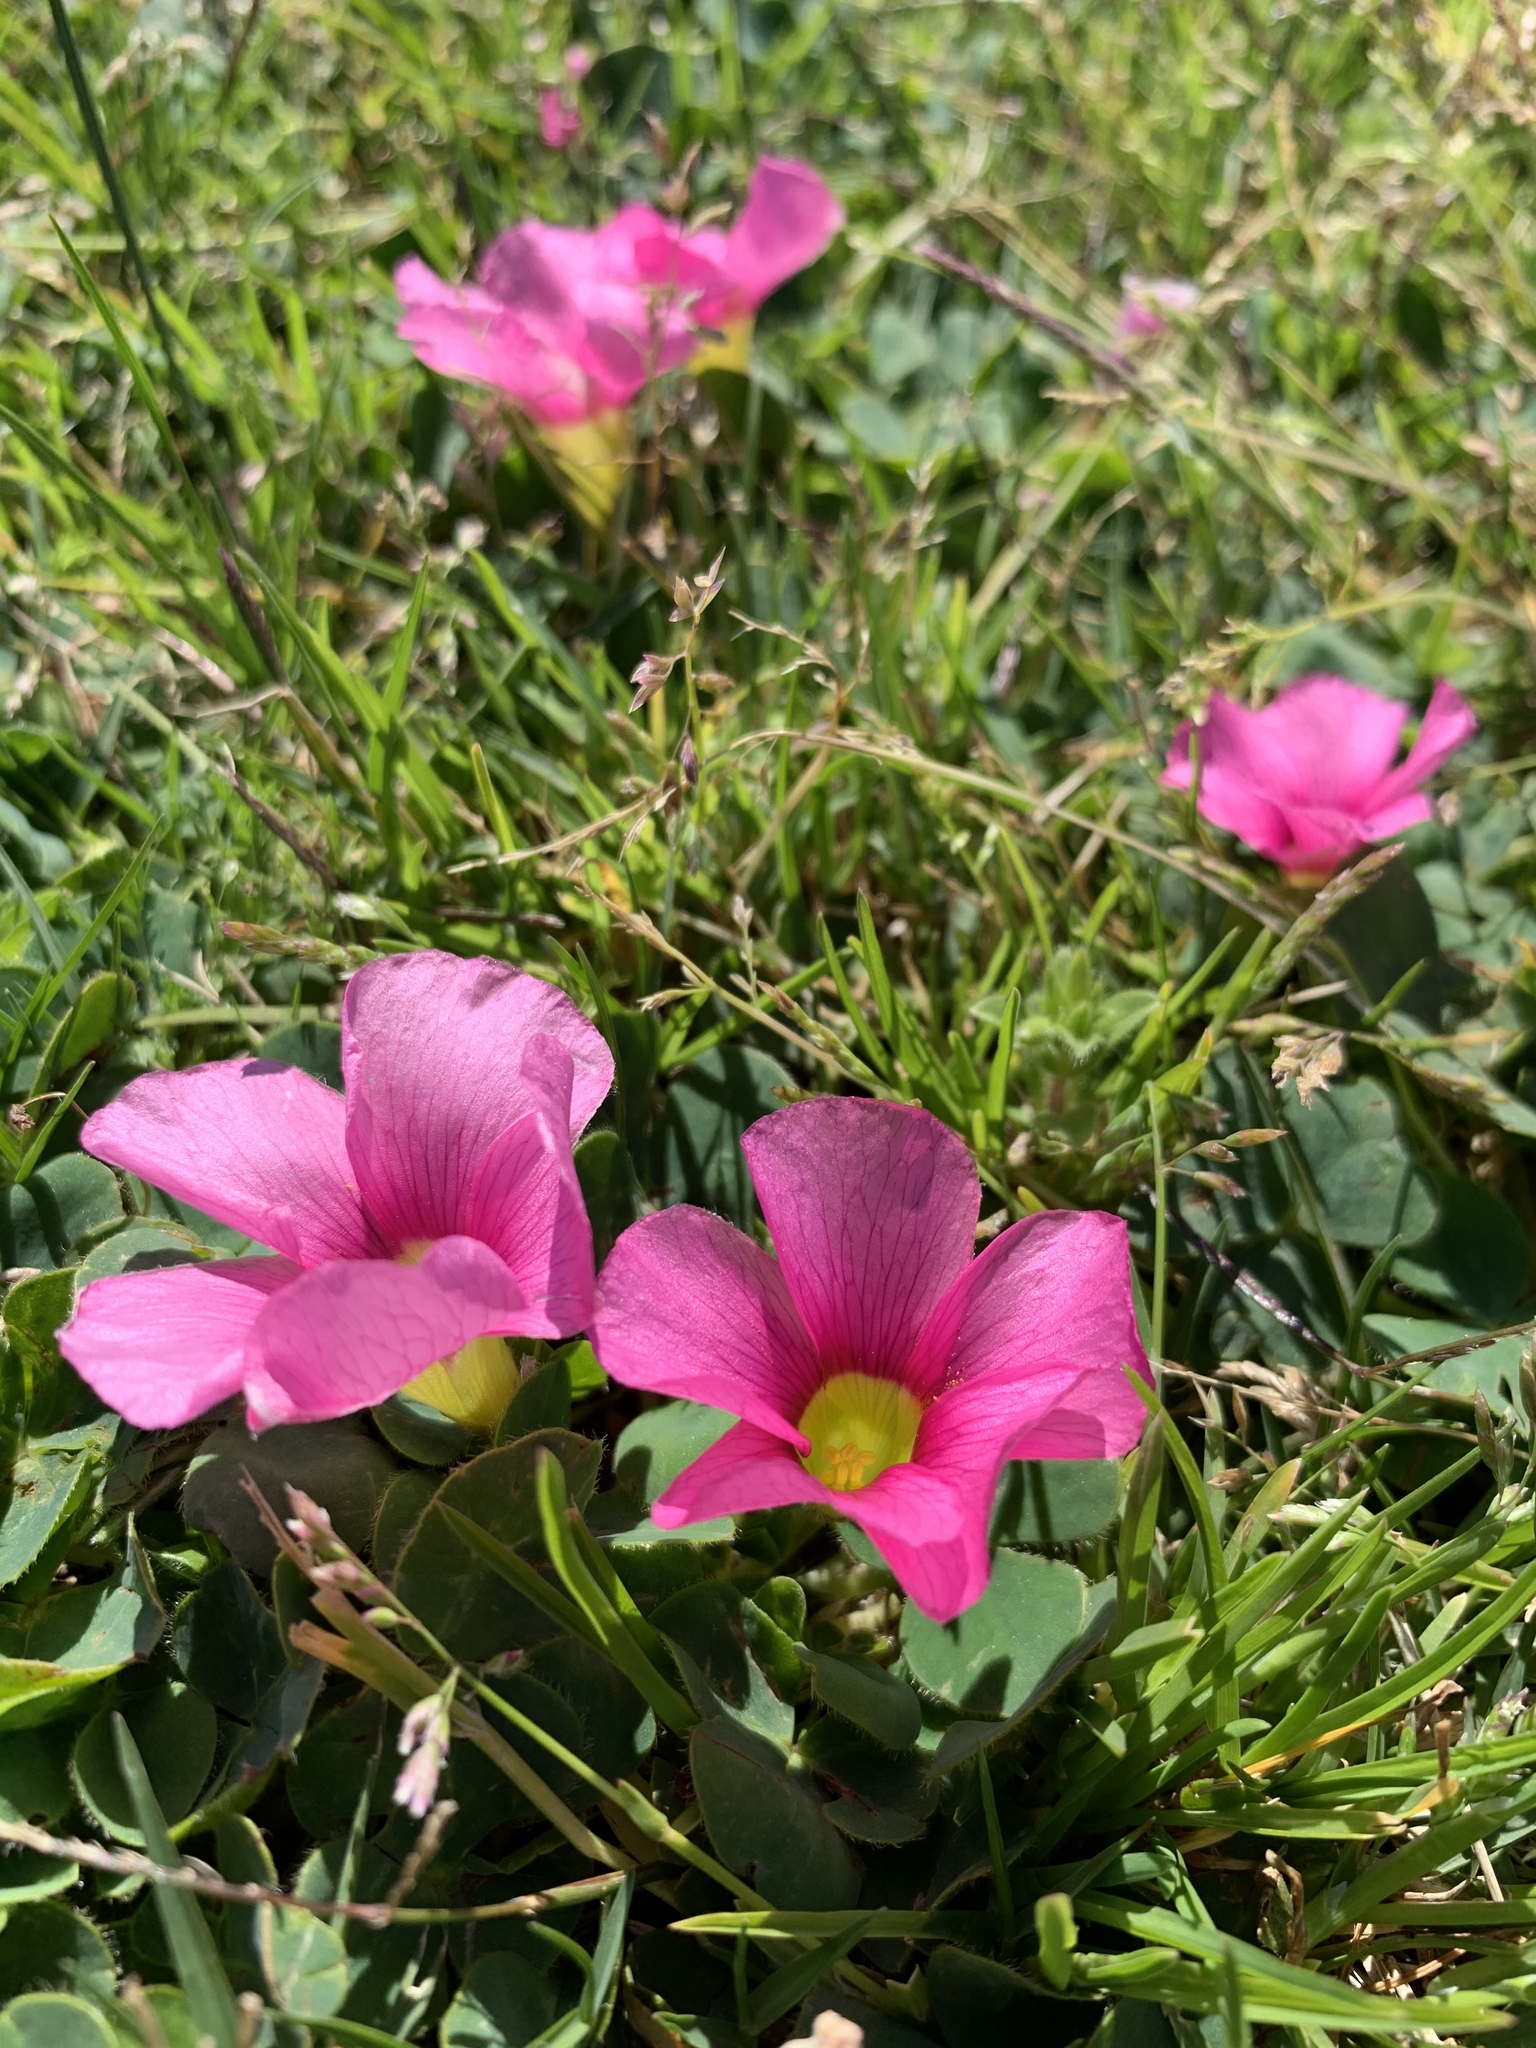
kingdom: Plantae
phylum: Tracheophyta
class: Magnoliopsida
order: Oxalidales
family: Oxalidaceae
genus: Oxalis
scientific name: Oxalis purpurea
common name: Purple woodsorrel
